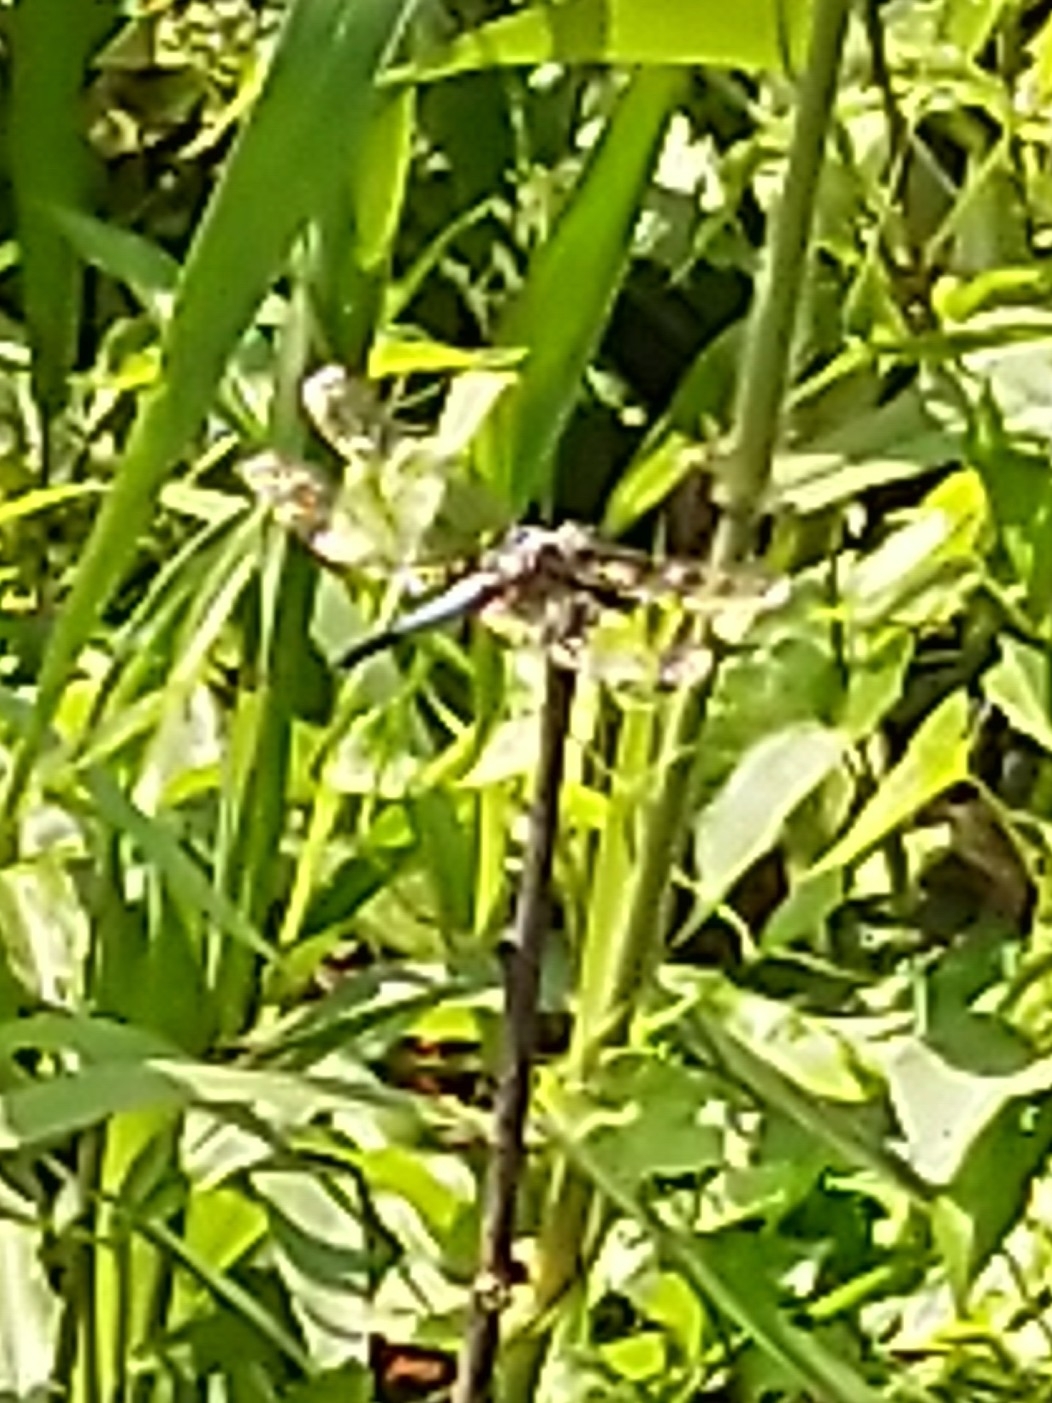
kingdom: Animalia
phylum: Arthropoda
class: Insecta
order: Odonata
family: Libellulidae
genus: Brachydiplax
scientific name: Brachydiplax chalybea
